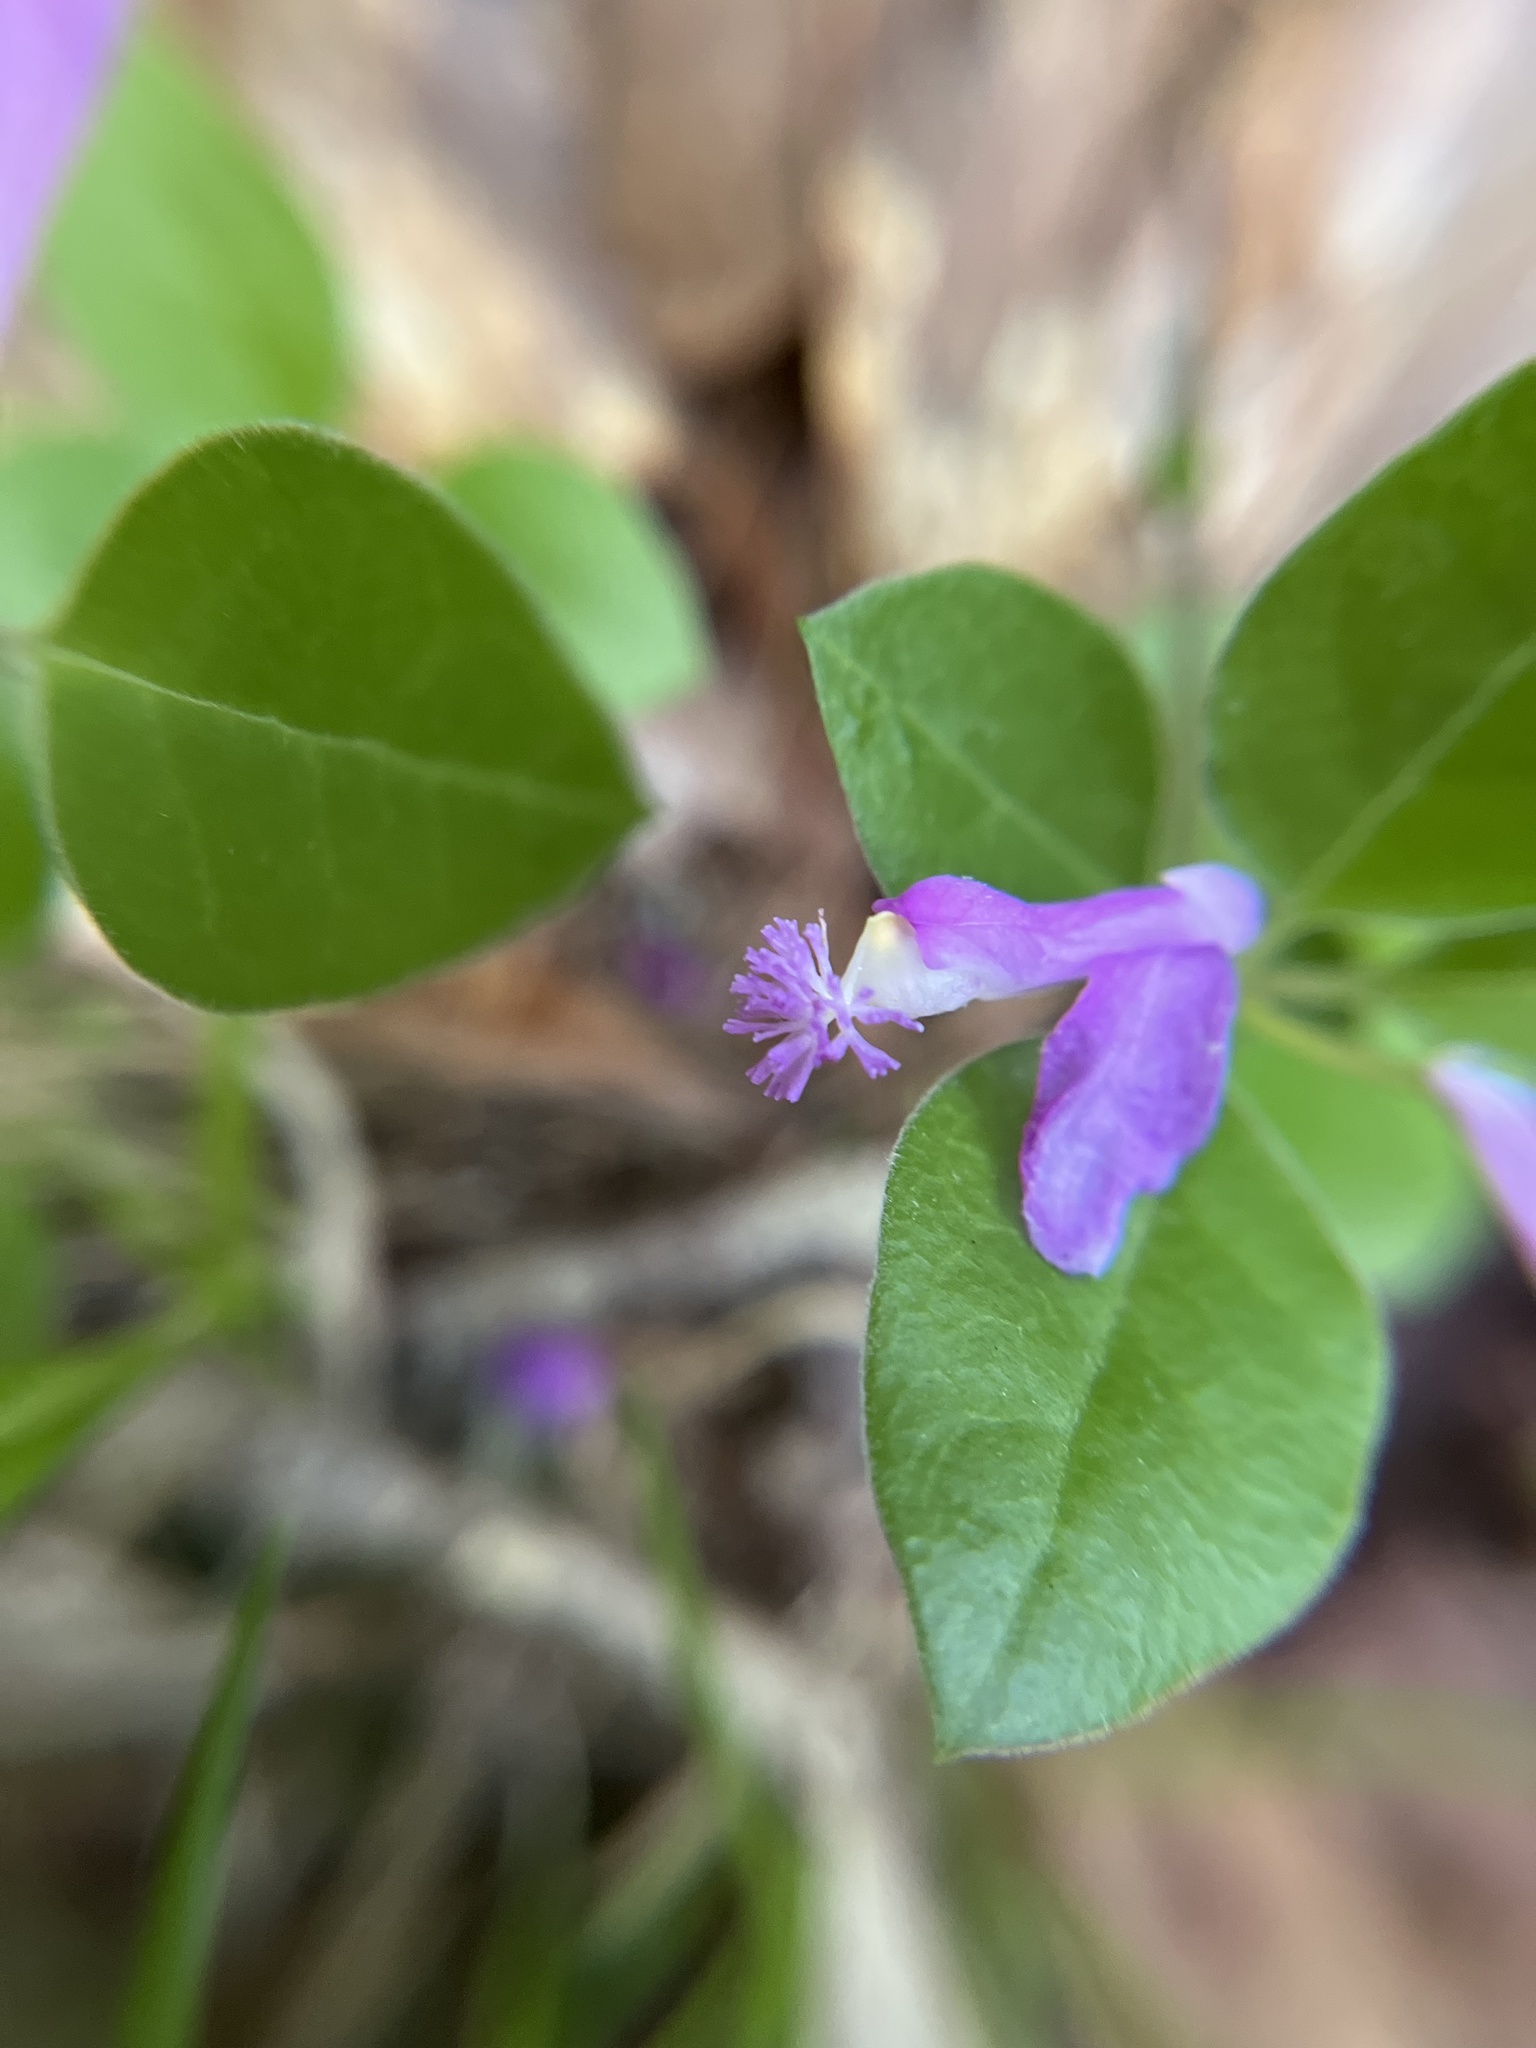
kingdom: Plantae
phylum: Tracheophyta
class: Magnoliopsida
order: Fabales
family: Polygalaceae
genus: Polygaloides
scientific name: Polygaloides paucifolia
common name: Bird-on-the-wing
